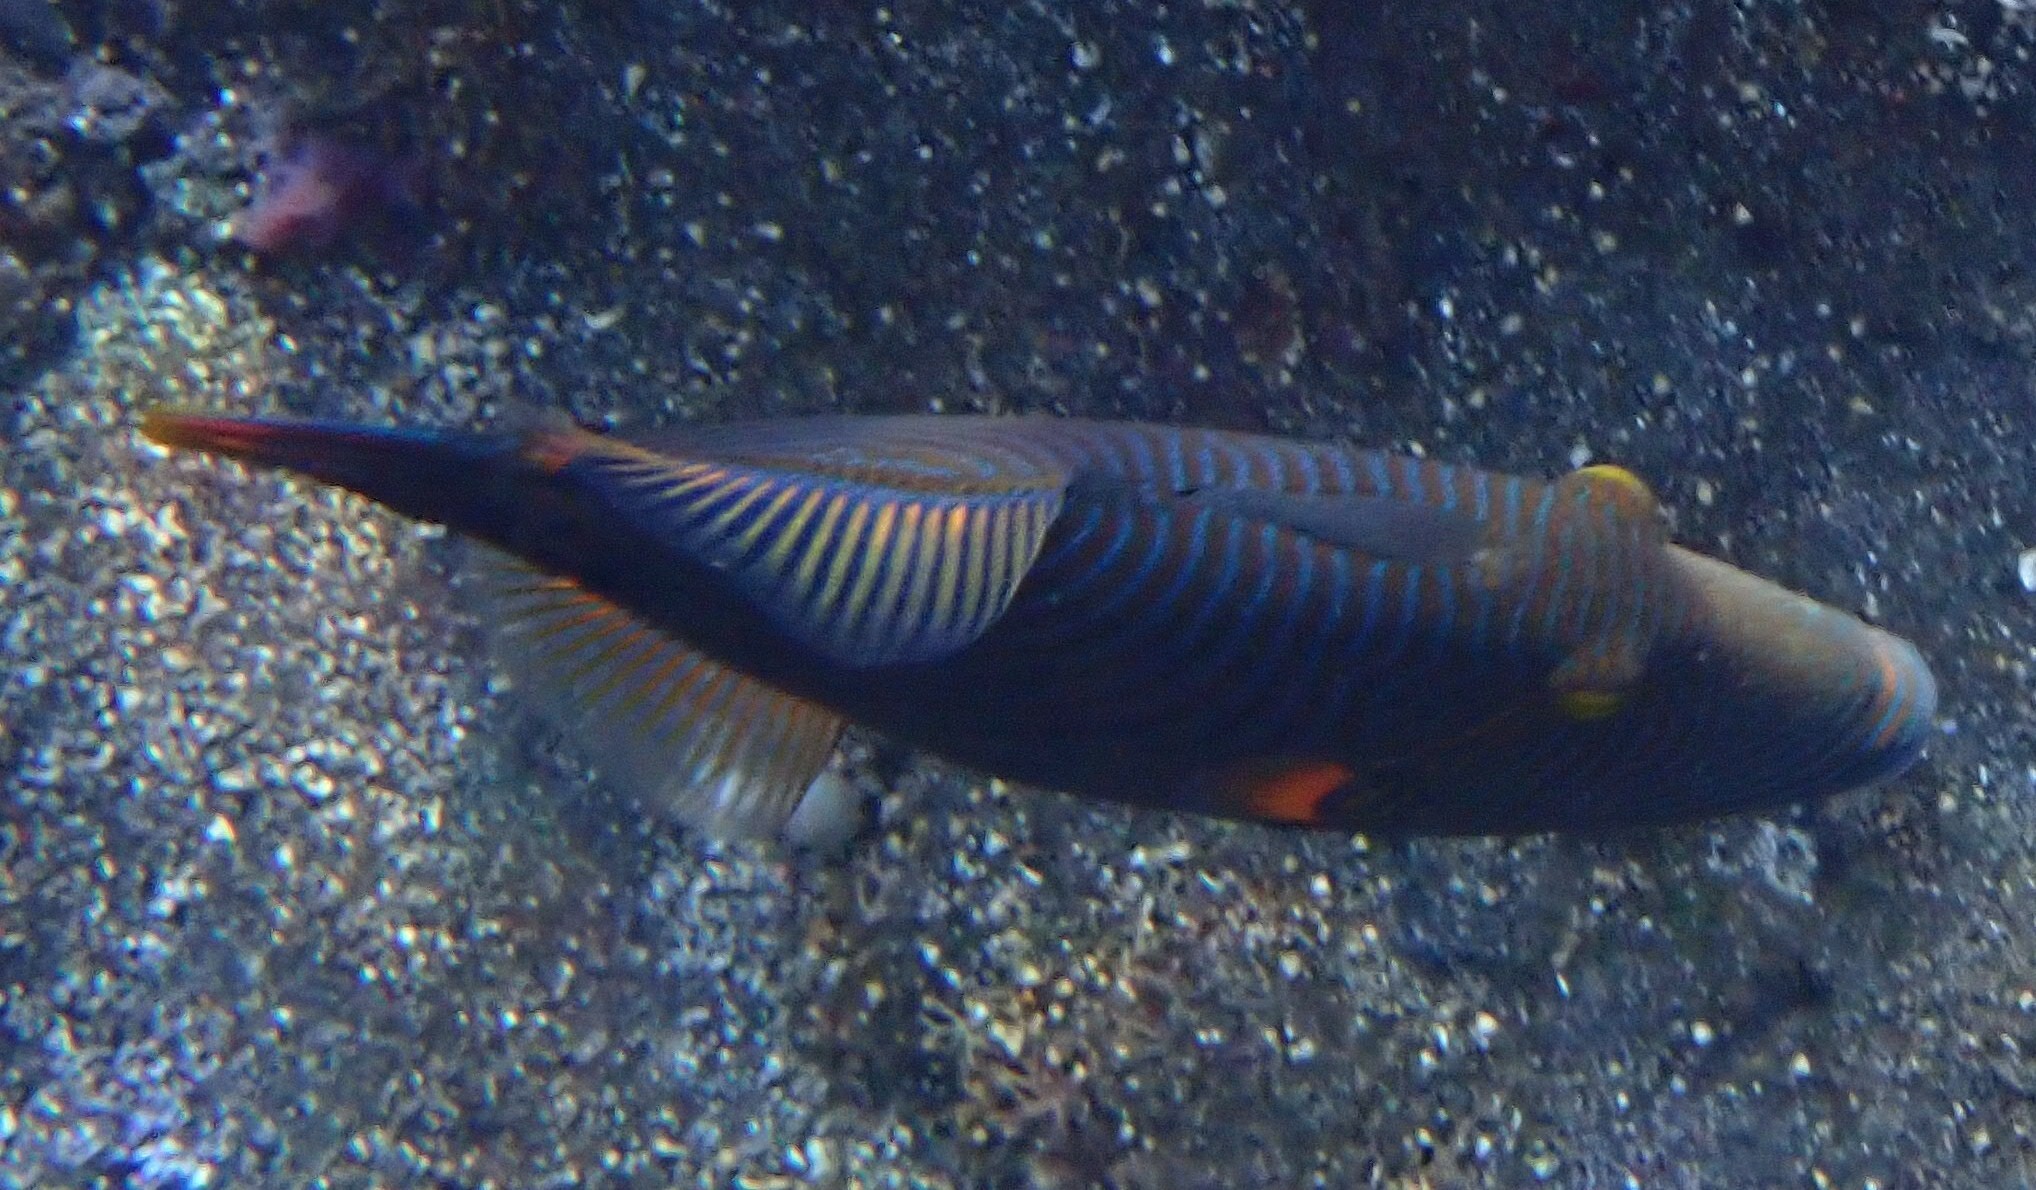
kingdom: Animalia
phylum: Chordata
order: Tetraodontiformes
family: Balistidae
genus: Balistapus
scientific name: Balistapus undulatus
